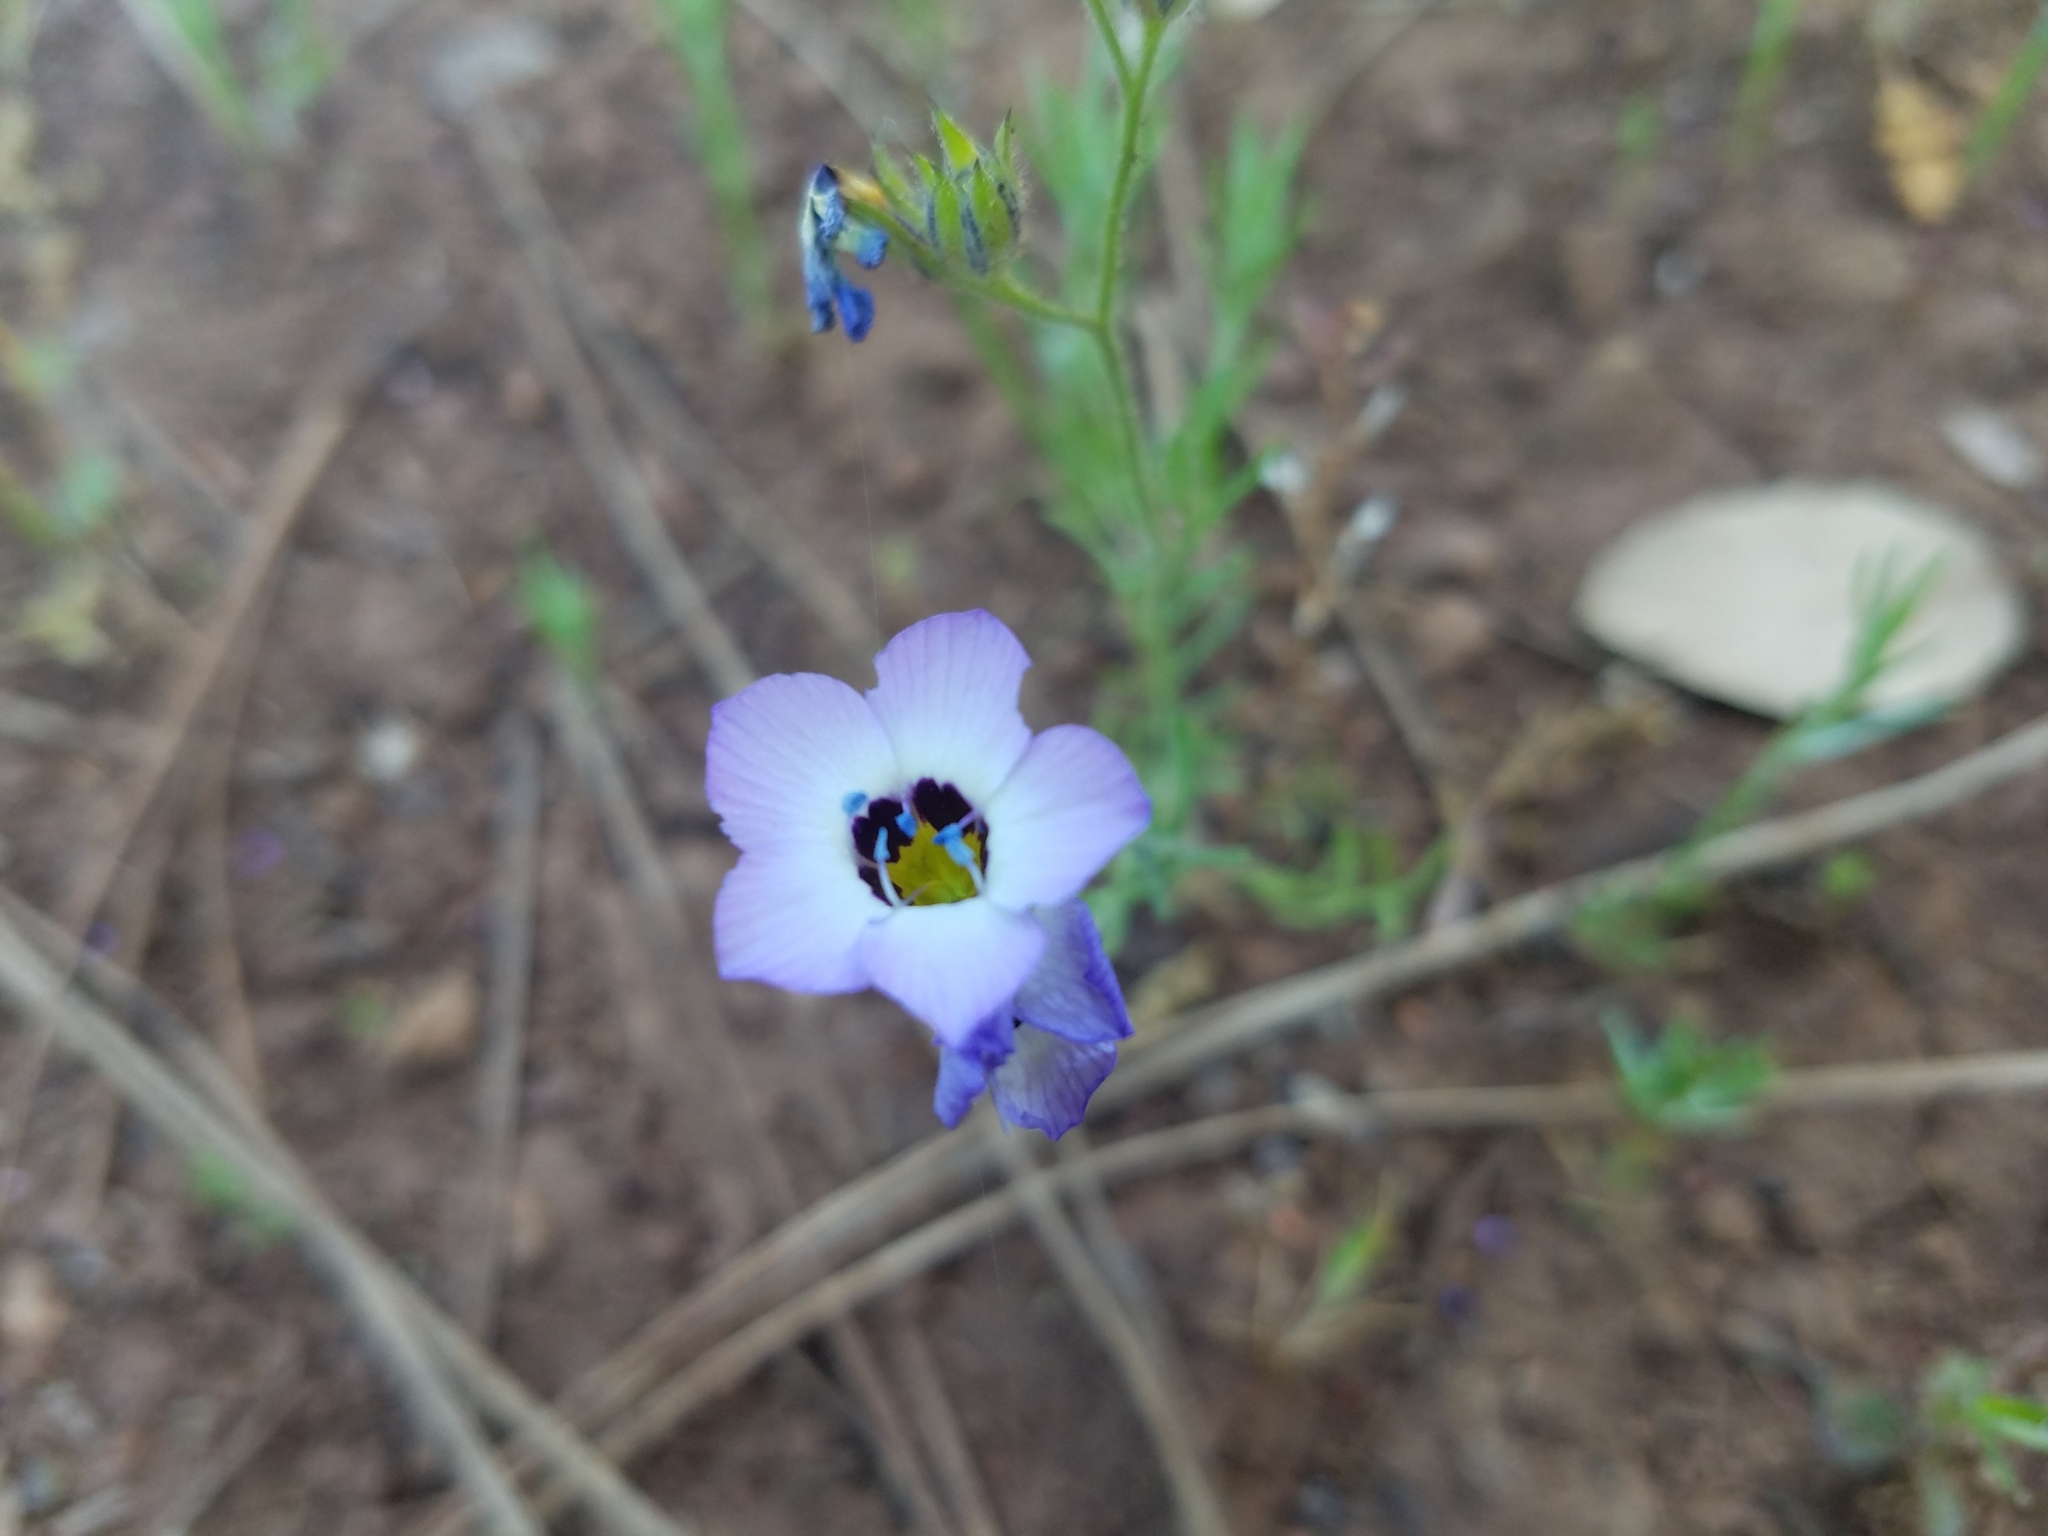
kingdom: Plantae
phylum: Tracheophyta
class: Magnoliopsida
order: Ericales
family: Polemoniaceae
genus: Gilia
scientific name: Gilia tricolor
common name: Bird's-eyes
